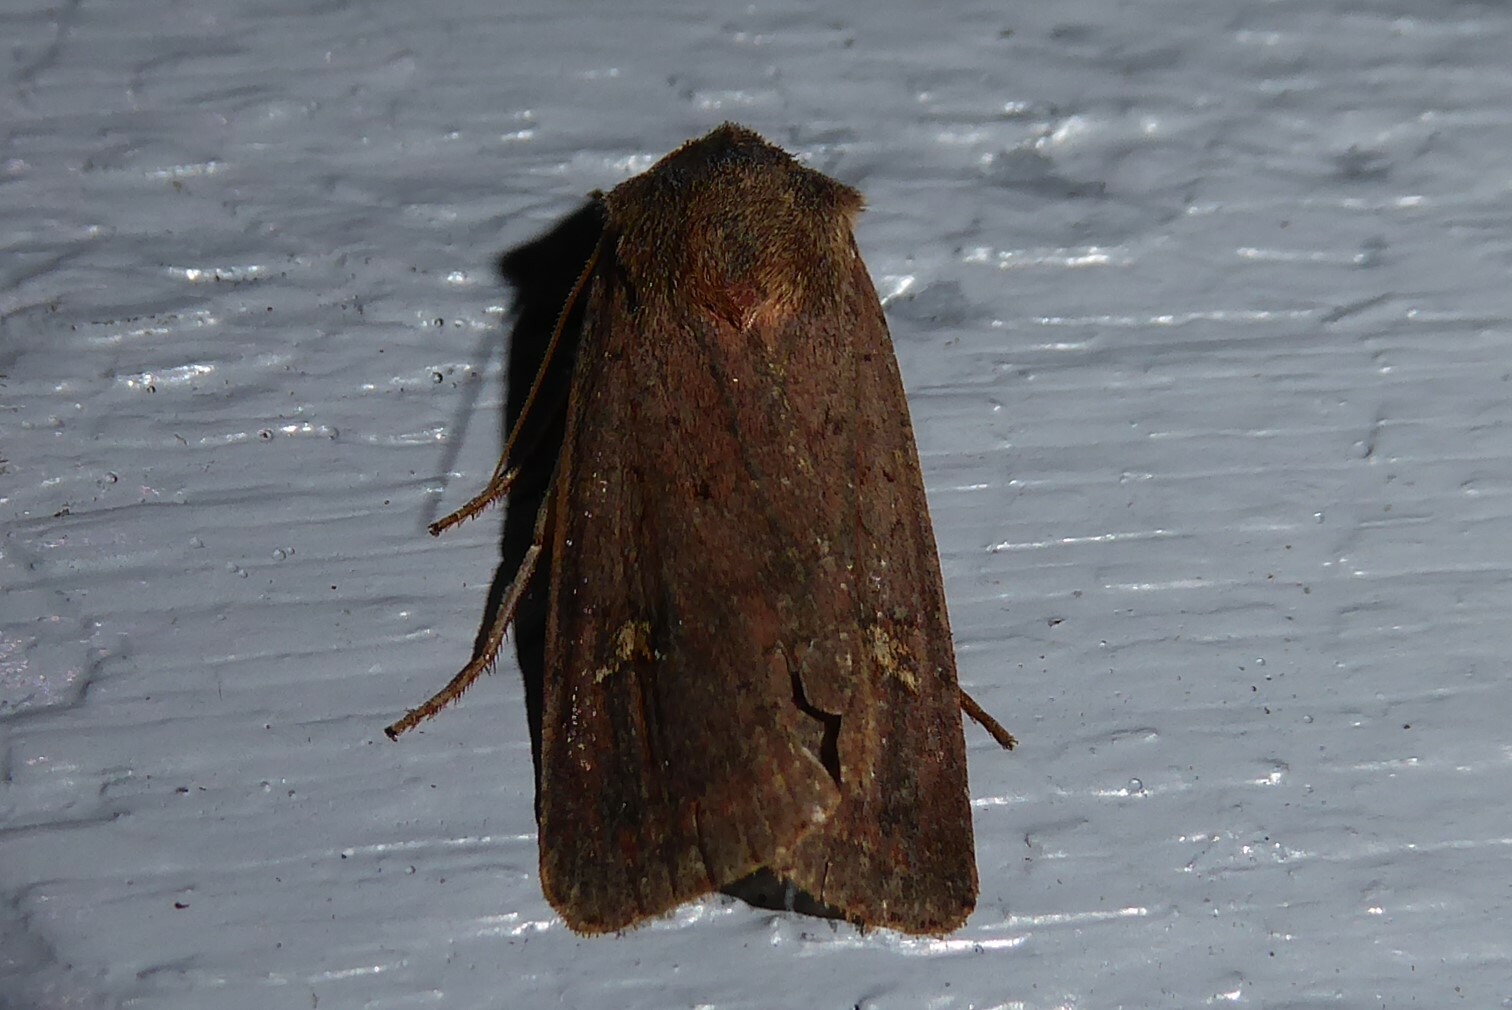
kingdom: Animalia
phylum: Arthropoda
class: Insecta
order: Lepidoptera
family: Noctuidae
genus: Diarsia
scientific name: Diarsia intermixta
